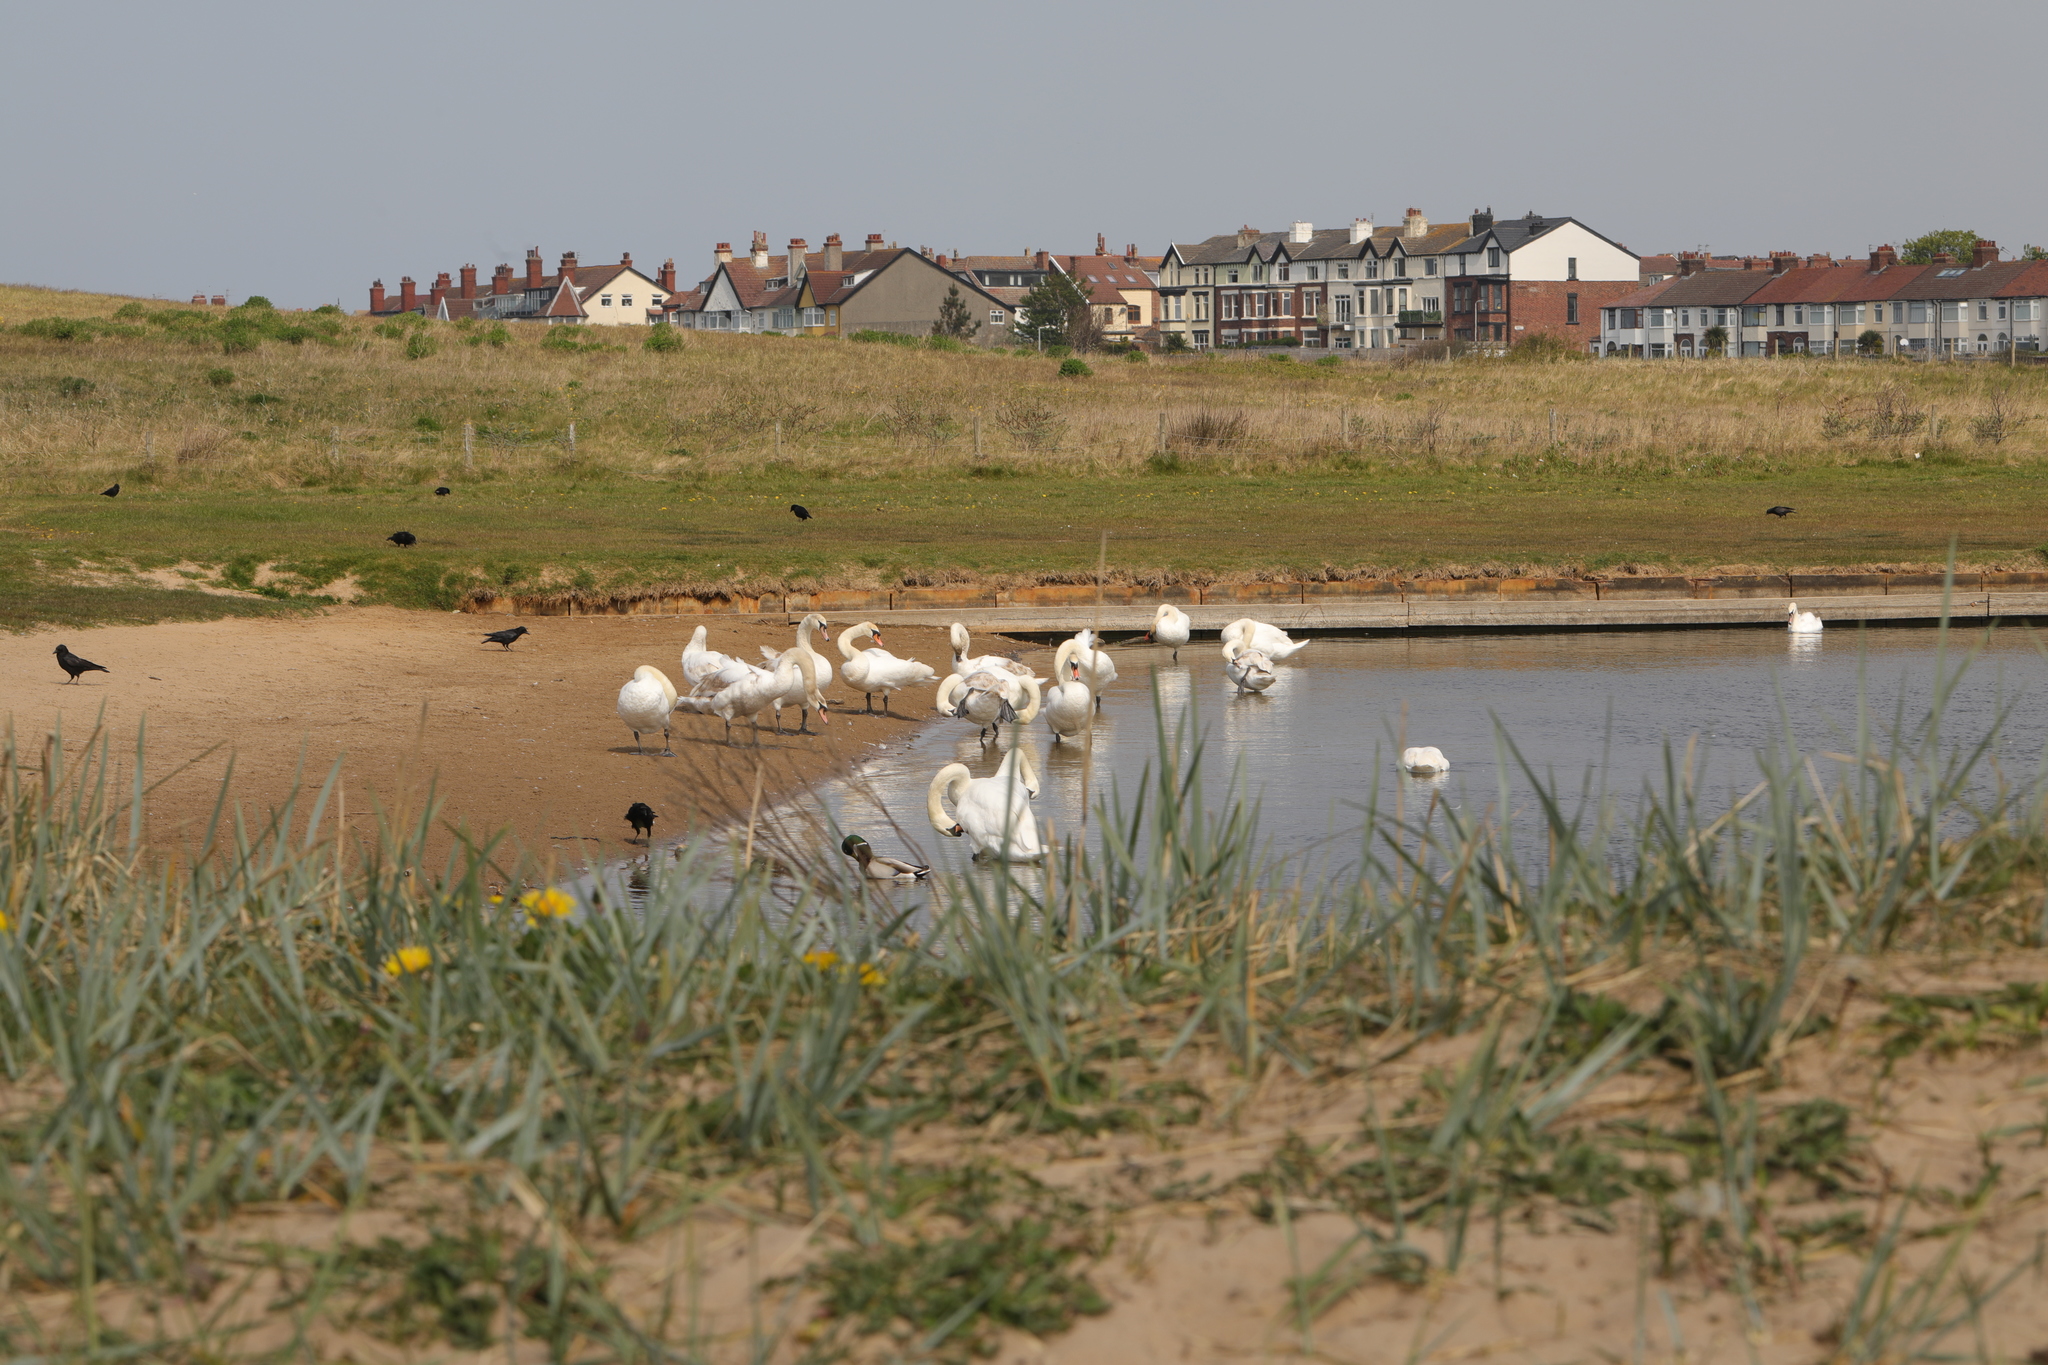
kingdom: Animalia
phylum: Chordata
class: Aves
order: Anseriformes
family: Anatidae
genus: Cygnus
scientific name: Cygnus olor
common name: Mute swan
